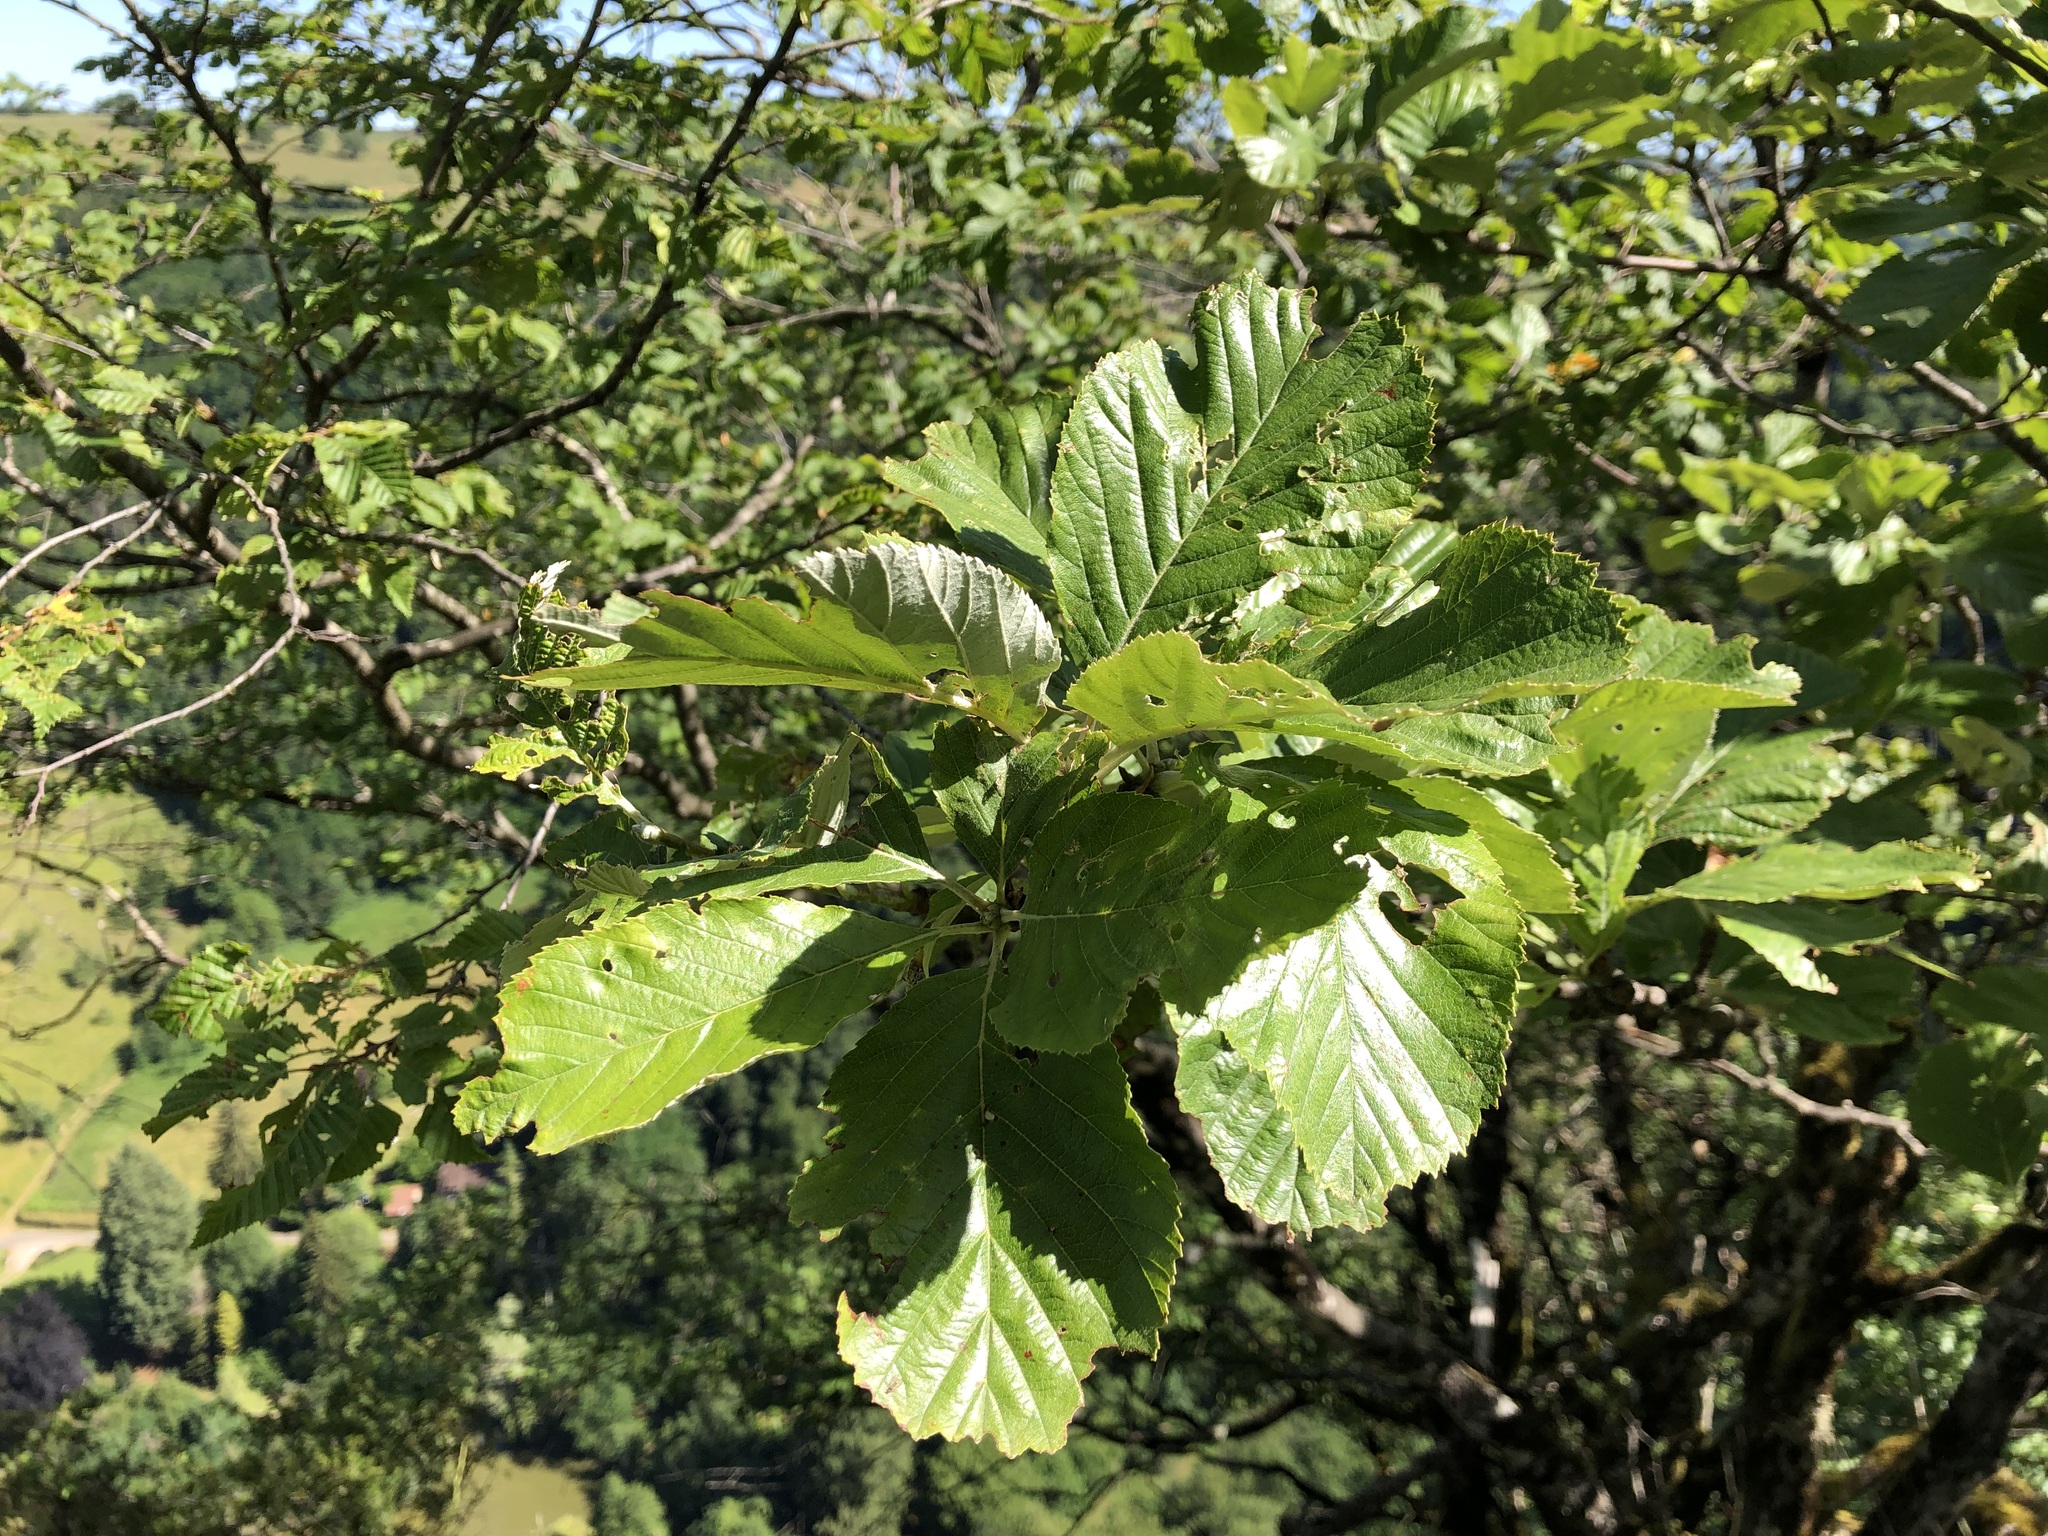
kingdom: Plantae
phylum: Tracheophyta
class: Magnoliopsida
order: Rosales
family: Rosaceae
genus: Aria
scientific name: Aria edulis
